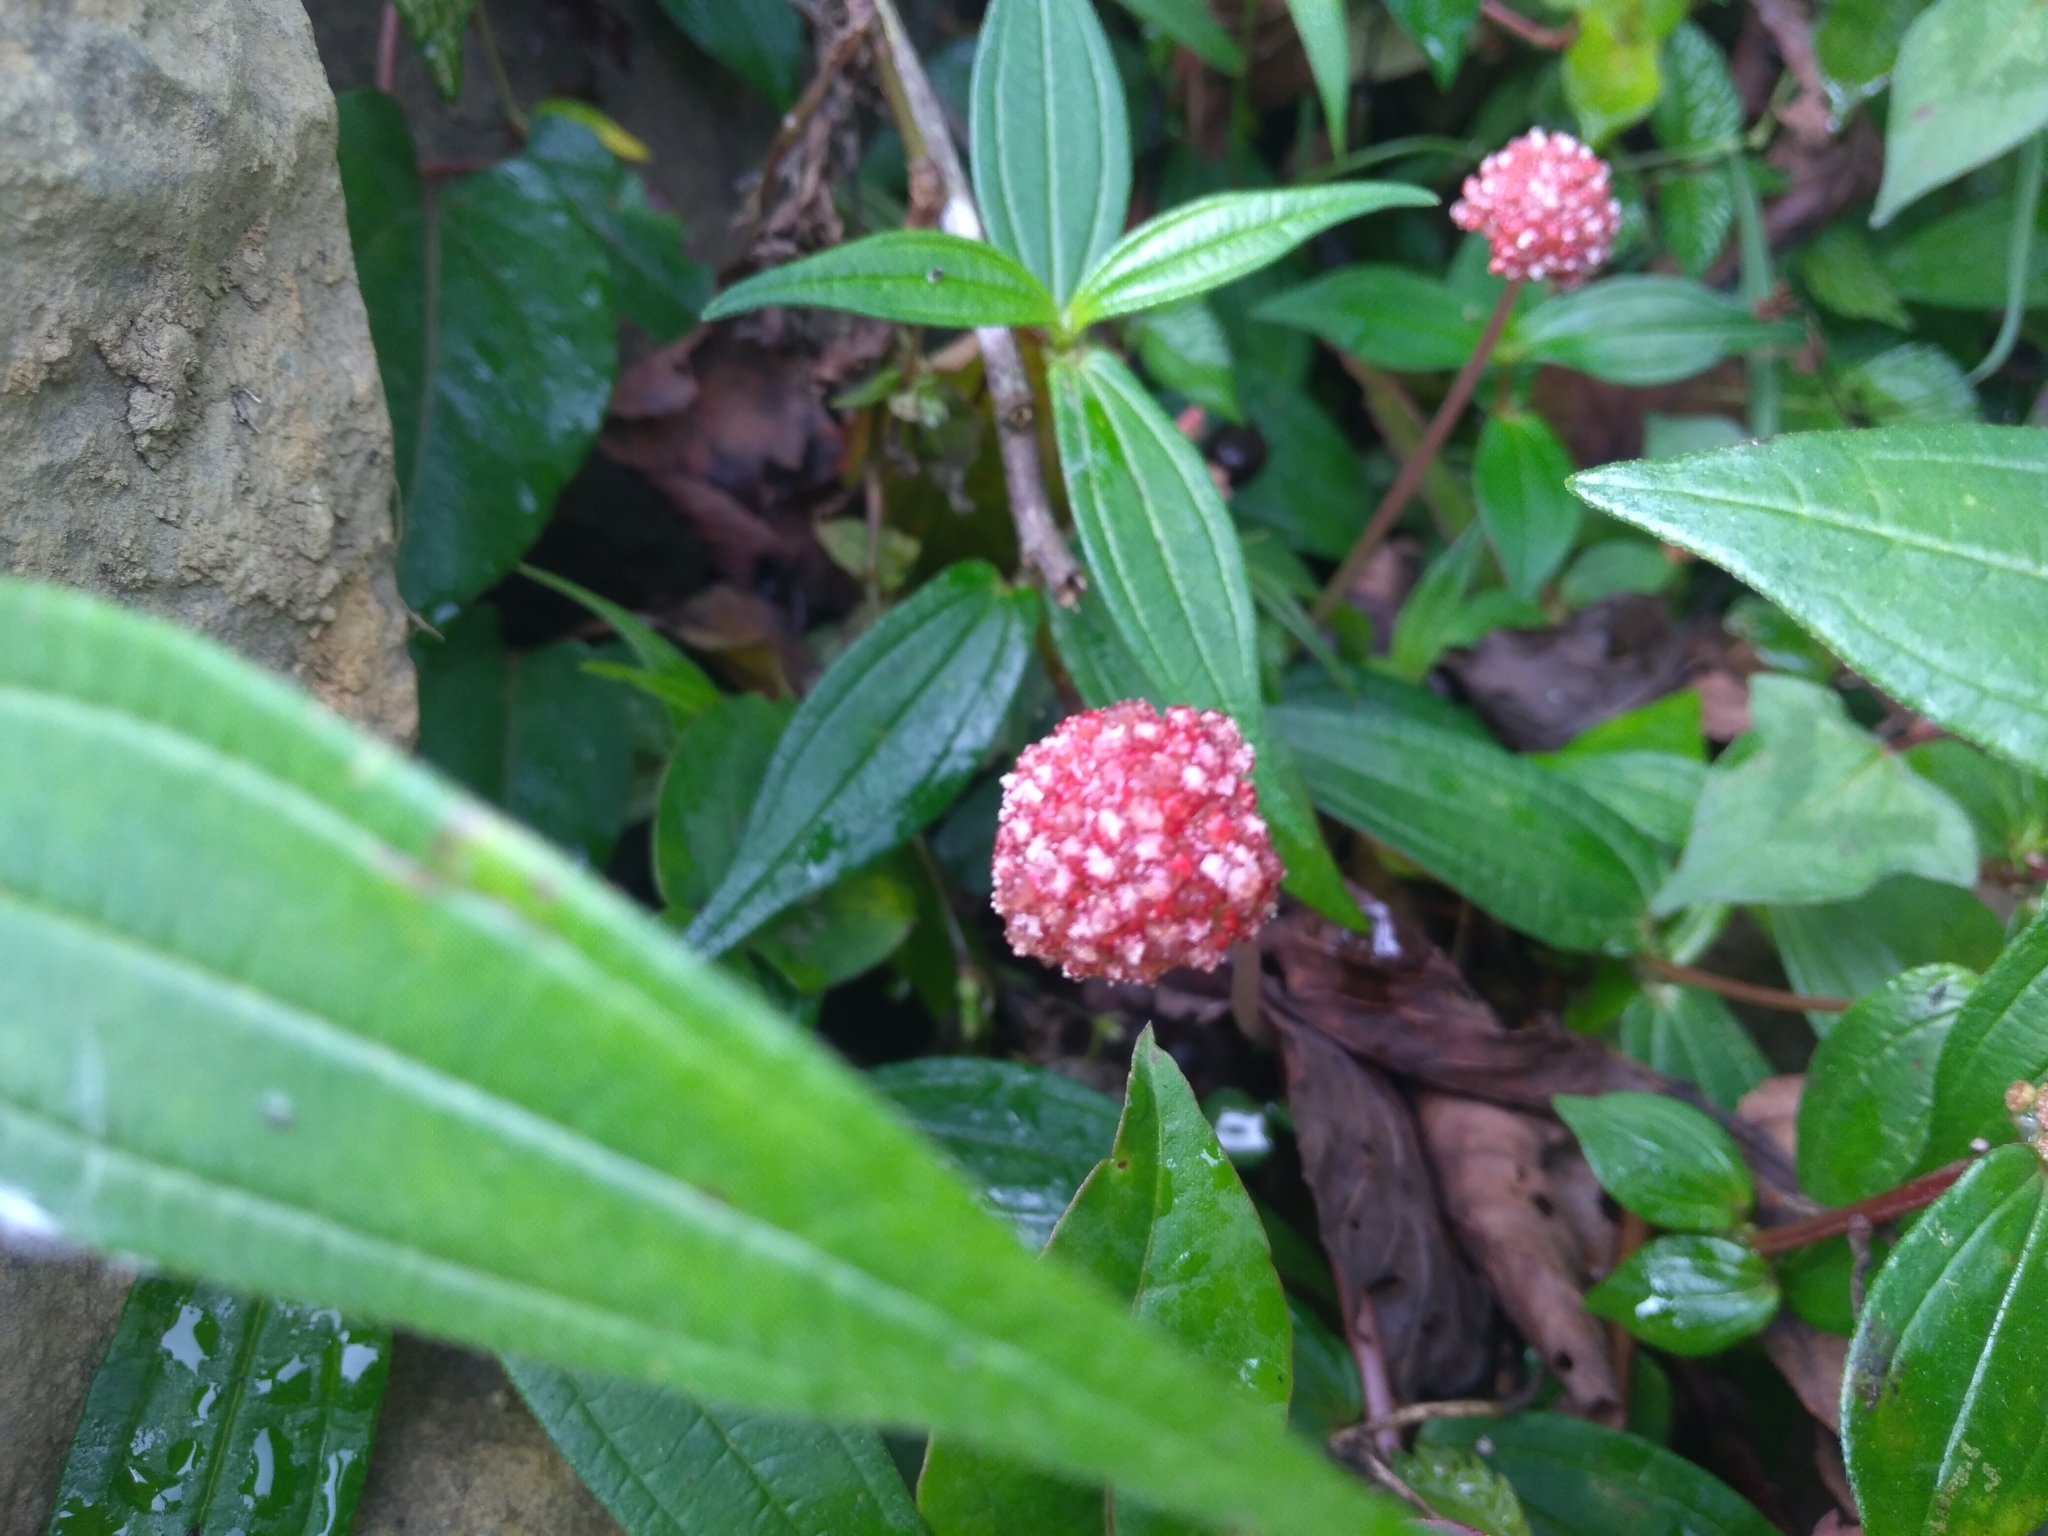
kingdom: Plantae
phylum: Tracheophyta
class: Magnoliopsida
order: Rosales
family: Urticaceae
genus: Lecanthus
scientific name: Lecanthus peduncularis
